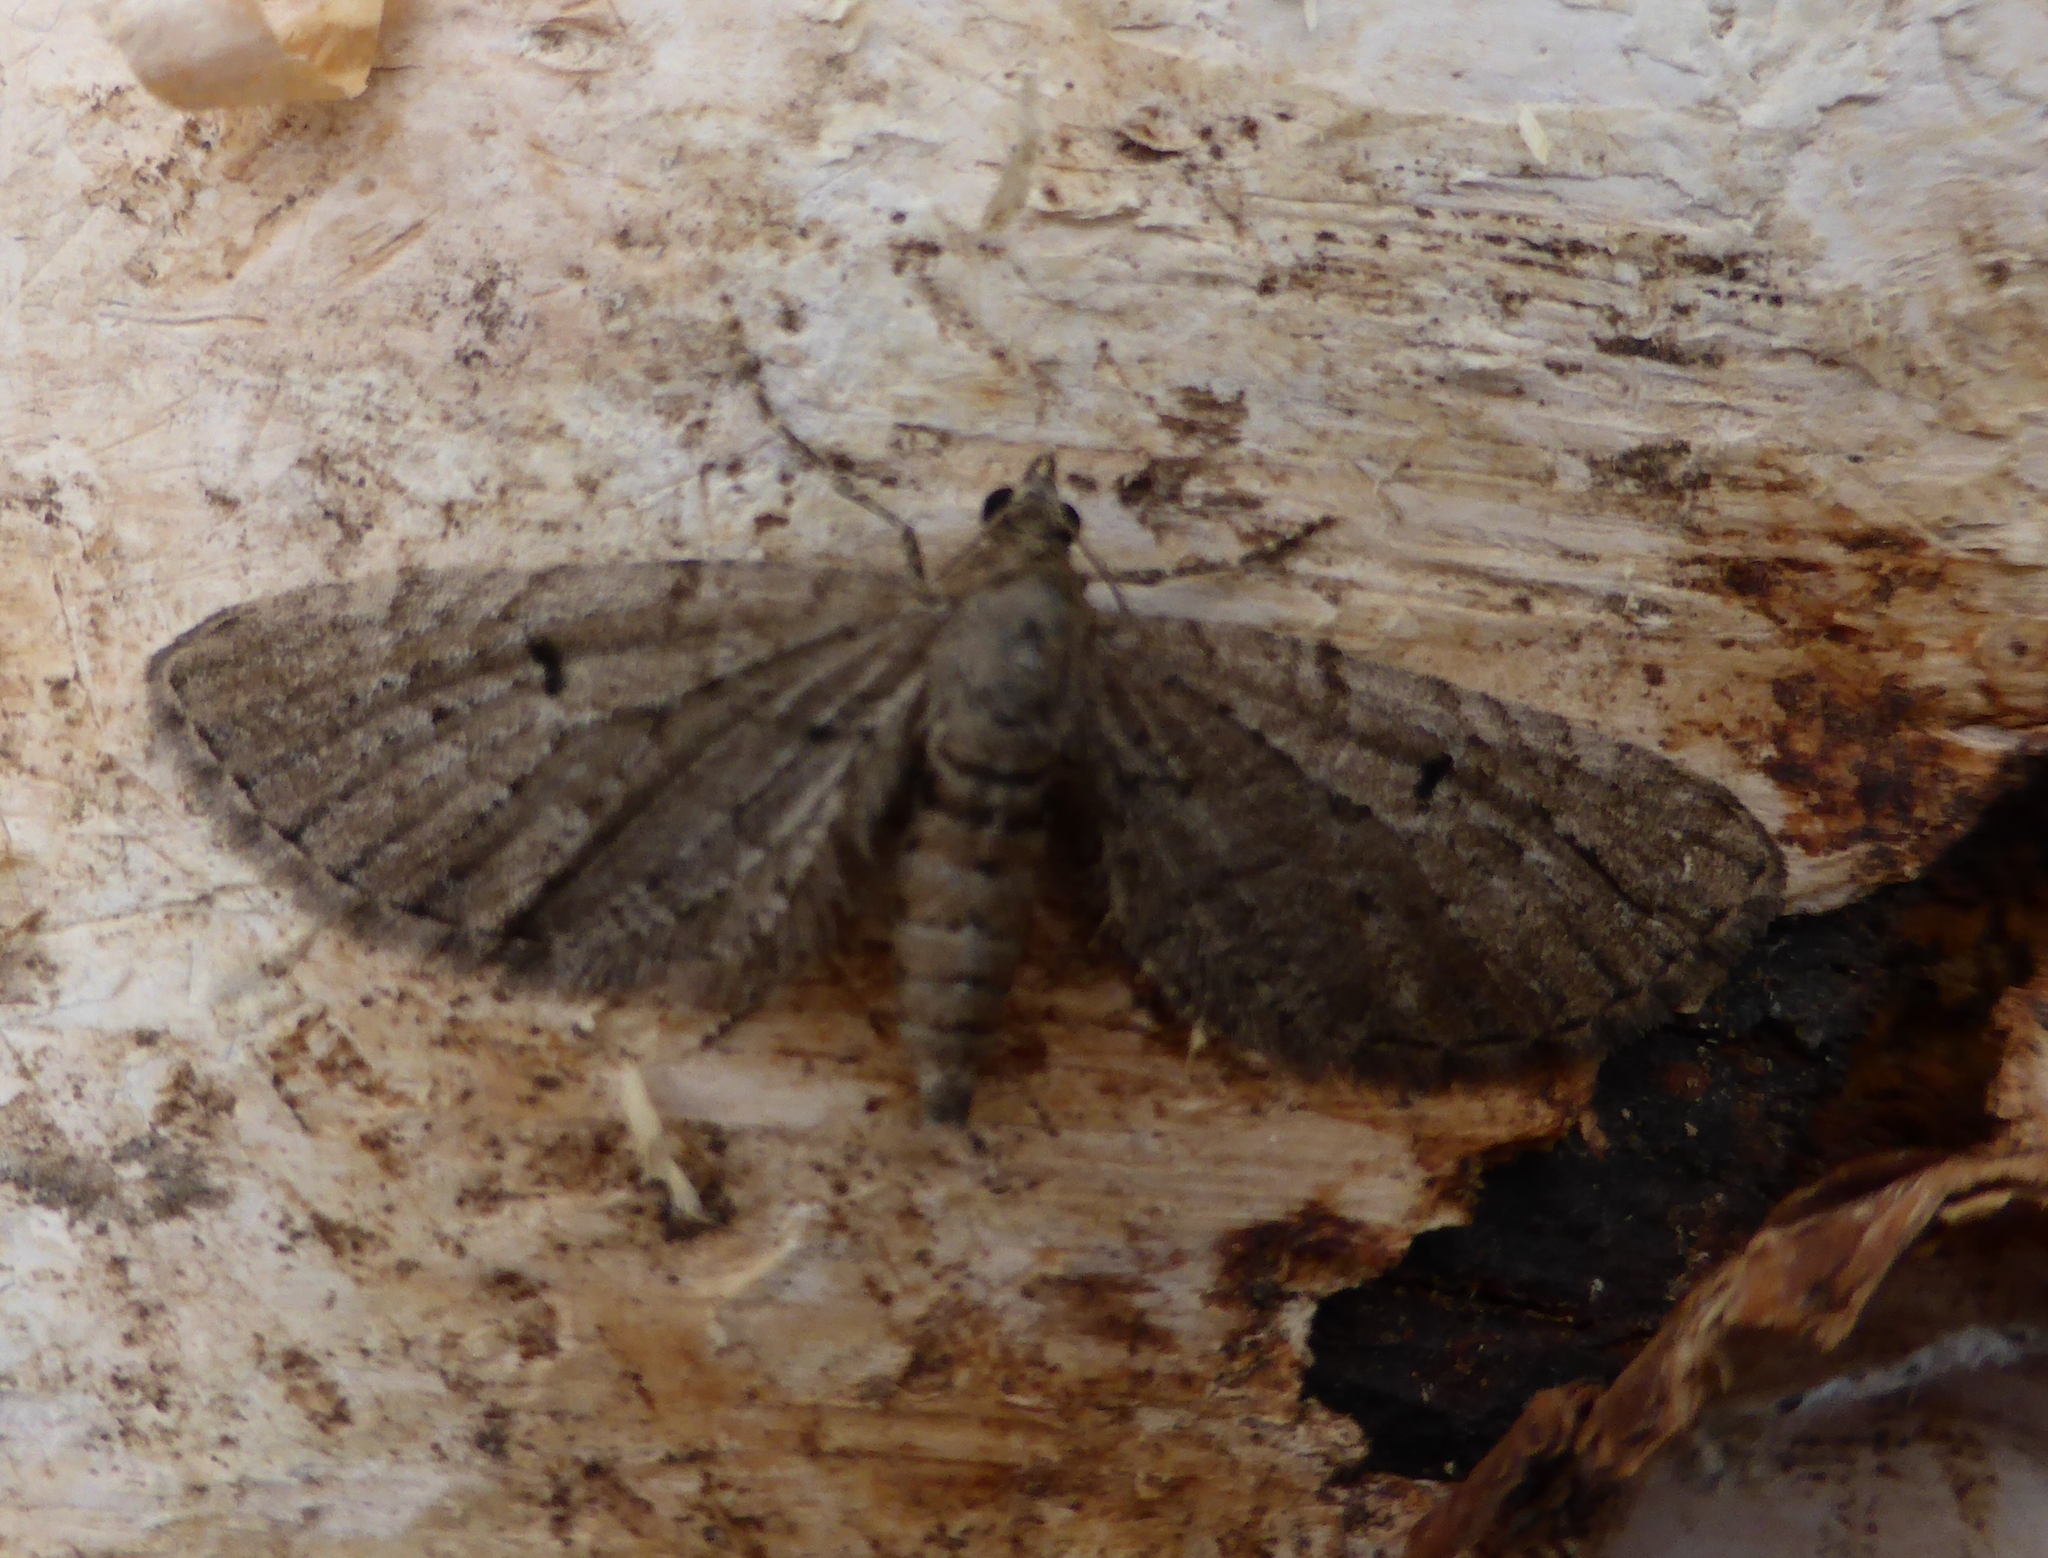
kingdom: Animalia
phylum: Arthropoda
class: Insecta
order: Lepidoptera
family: Geometridae
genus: Eupithecia
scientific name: Eupithecia intricata
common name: Freyers pug
